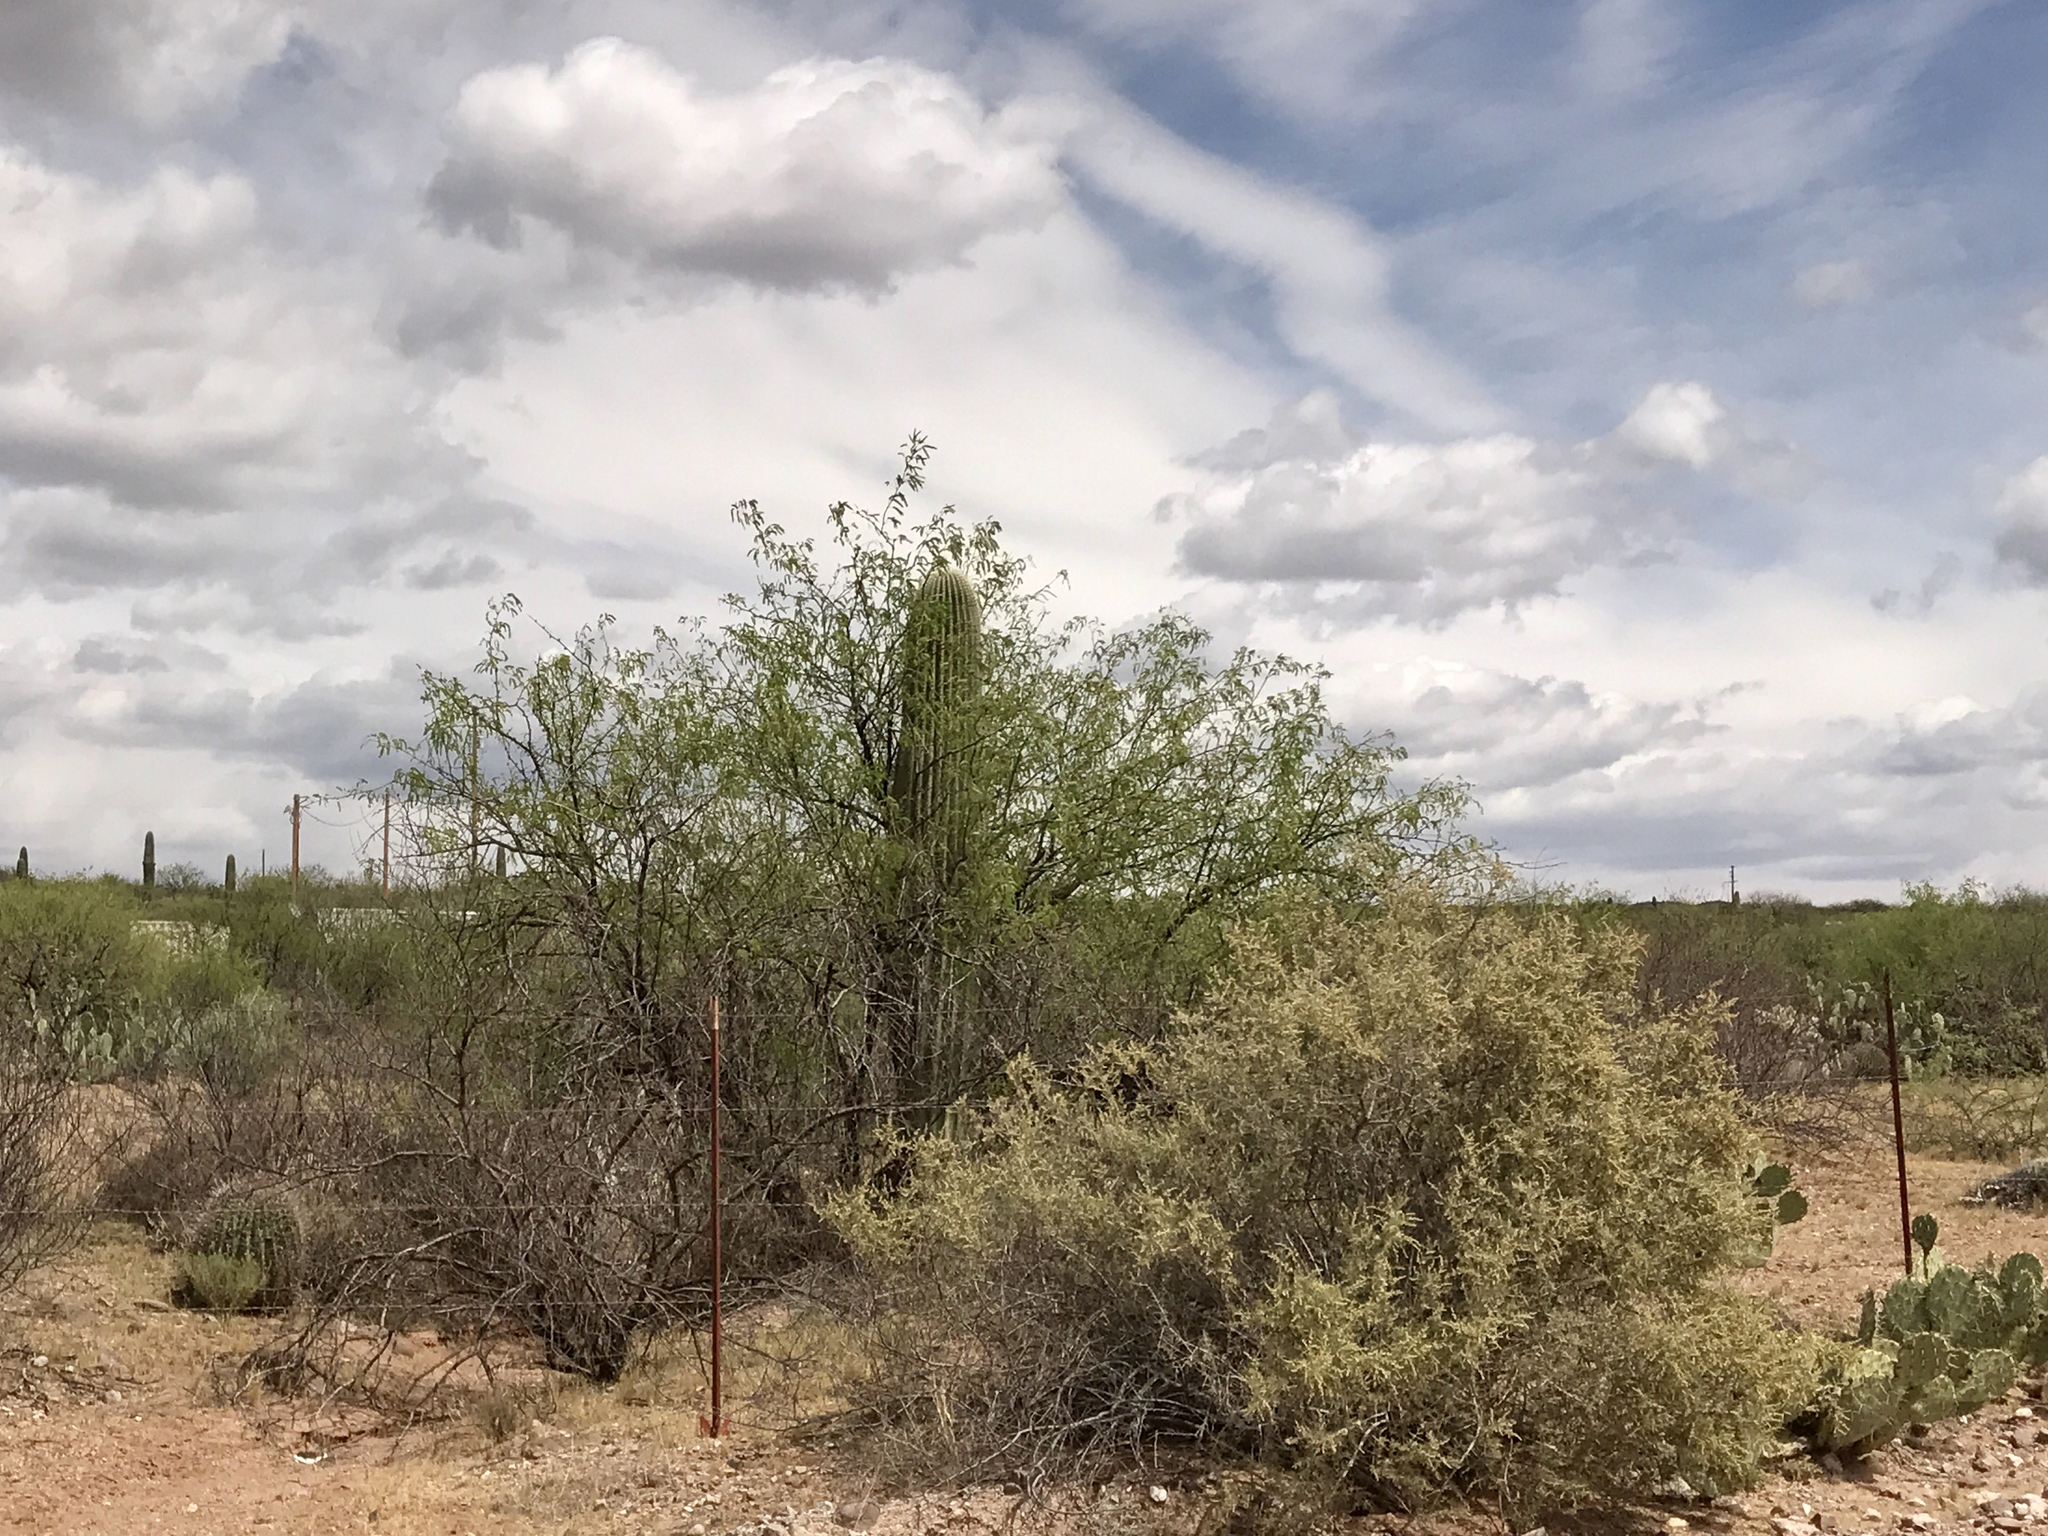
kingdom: Plantae
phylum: Tracheophyta
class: Magnoliopsida
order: Caryophyllales
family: Cactaceae
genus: Carnegiea
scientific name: Carnegiea gigantea
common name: Saguaro
